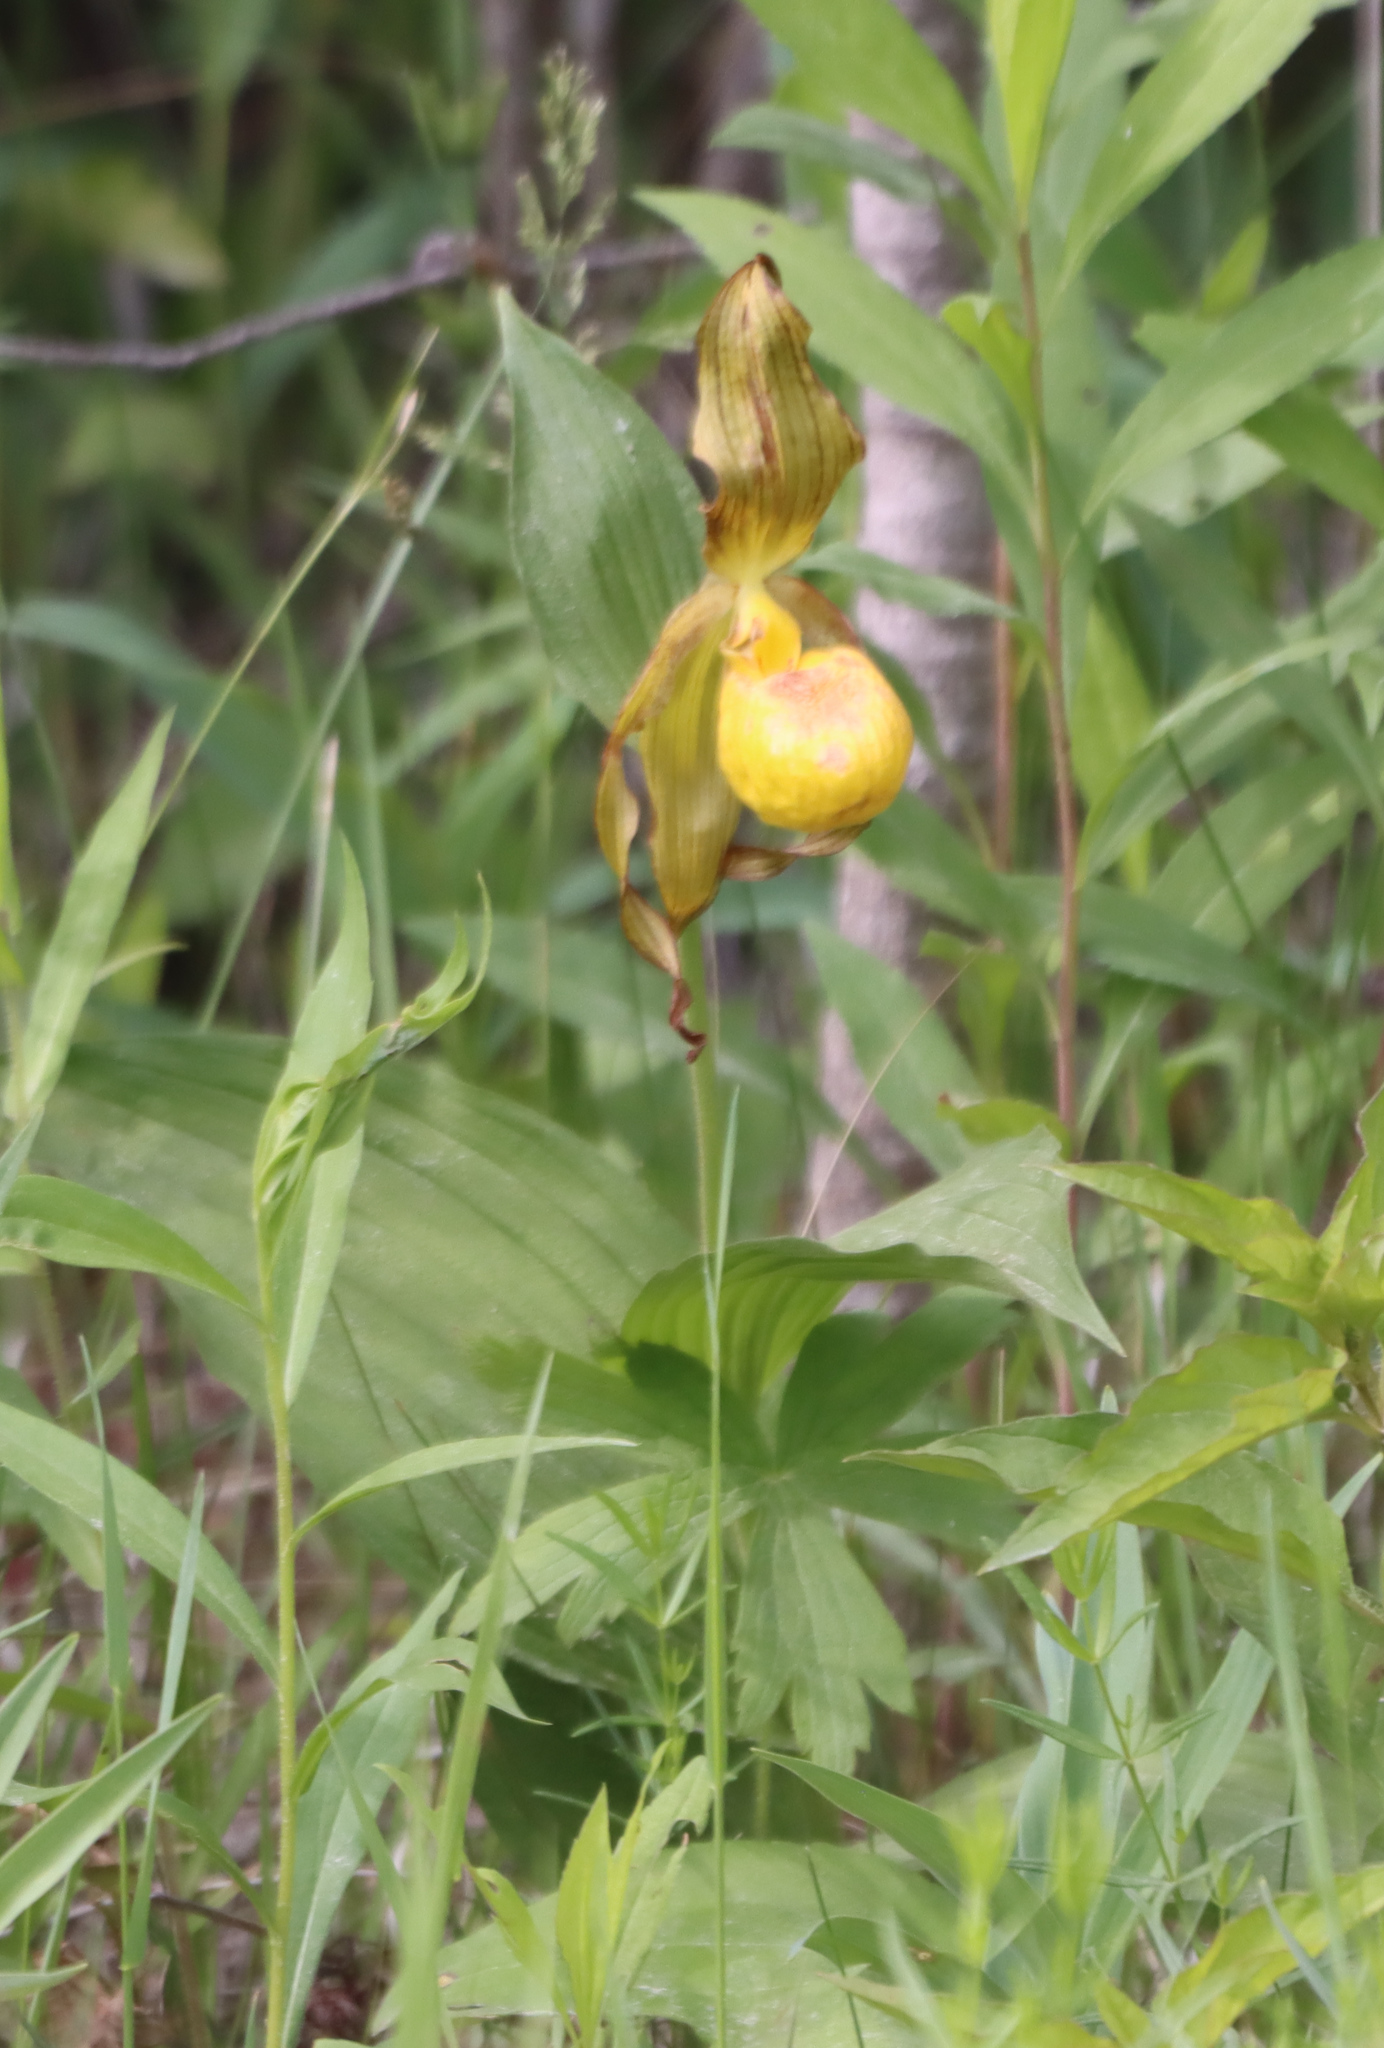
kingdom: Plantae
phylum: Tracheophyta
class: Liliopsida
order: Asparagales
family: Orchidaceae
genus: Cypripedium
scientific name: Cypripedium parviflorum
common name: American yellow lady's-slipper
